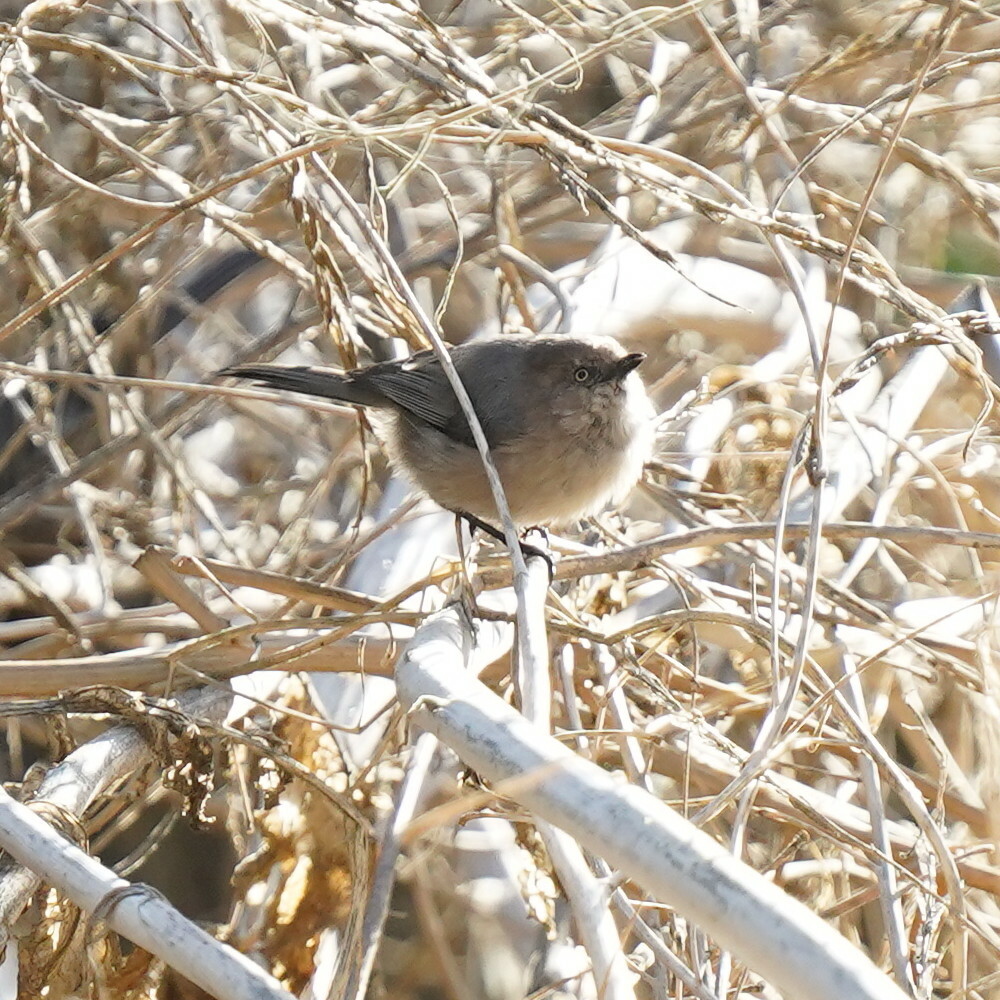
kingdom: Animalia
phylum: Chordata
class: Aves
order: Passeriformes
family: Aegithalidae
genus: Psaltriparus
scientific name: Psaltriparus minimus
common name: American bushtit
